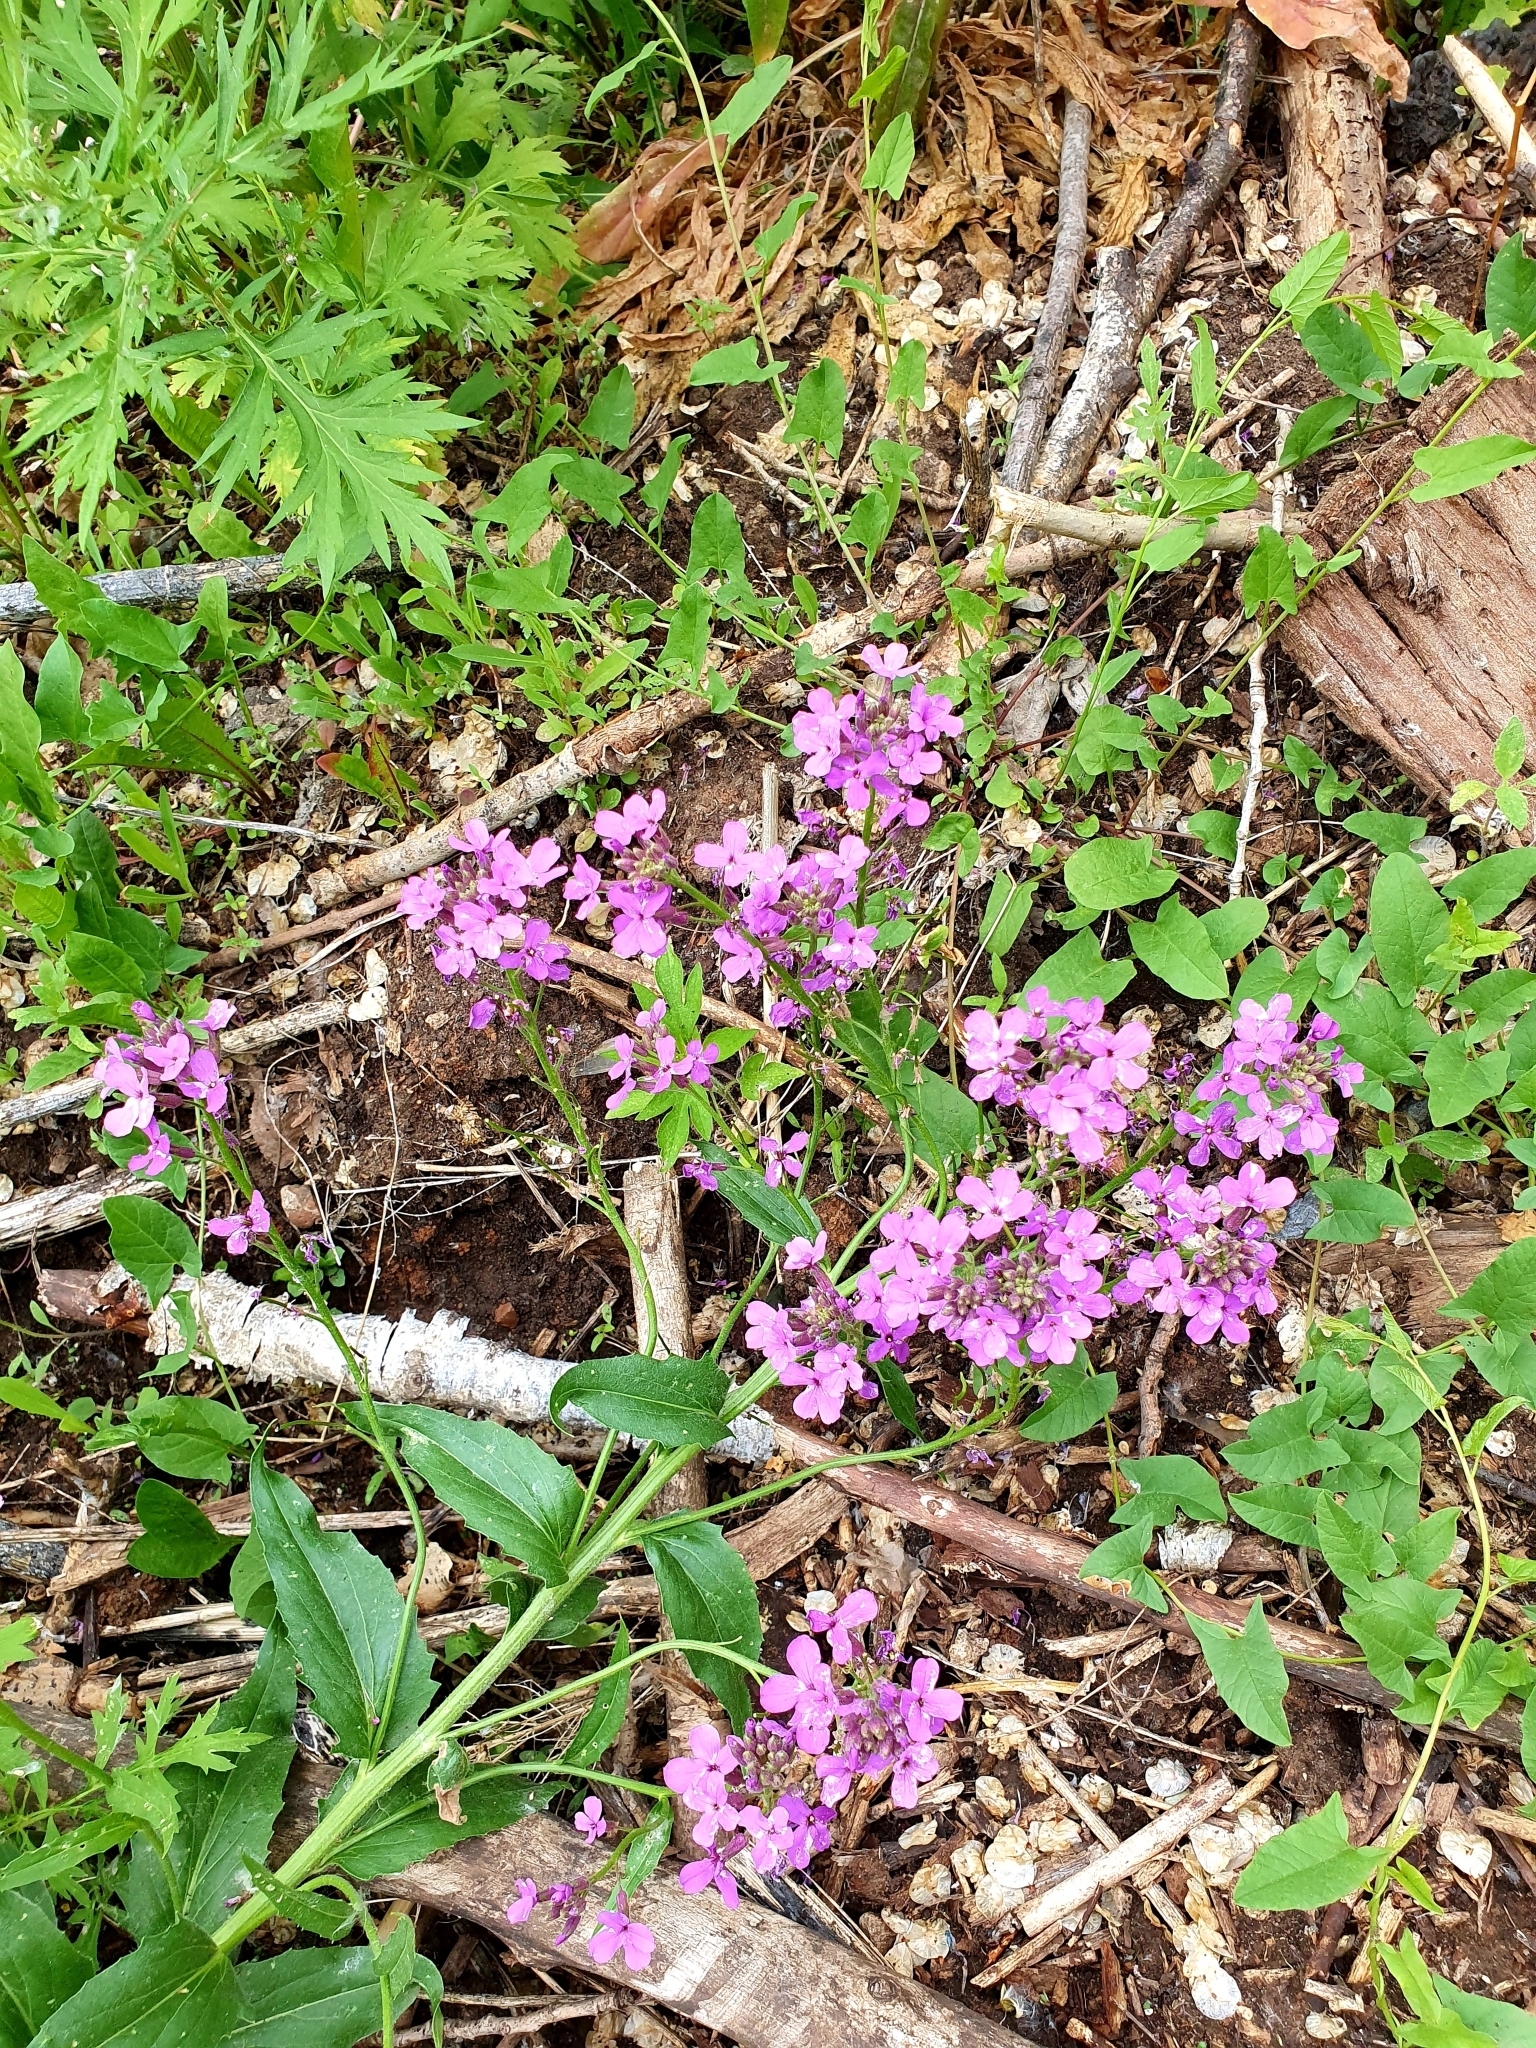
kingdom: Plantae
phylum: Tracheophyta
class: Magnoliopsida
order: Brassicales
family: Brassicaceae
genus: Hesperis
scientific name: Hesperis matronalis
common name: Dame's-violet
